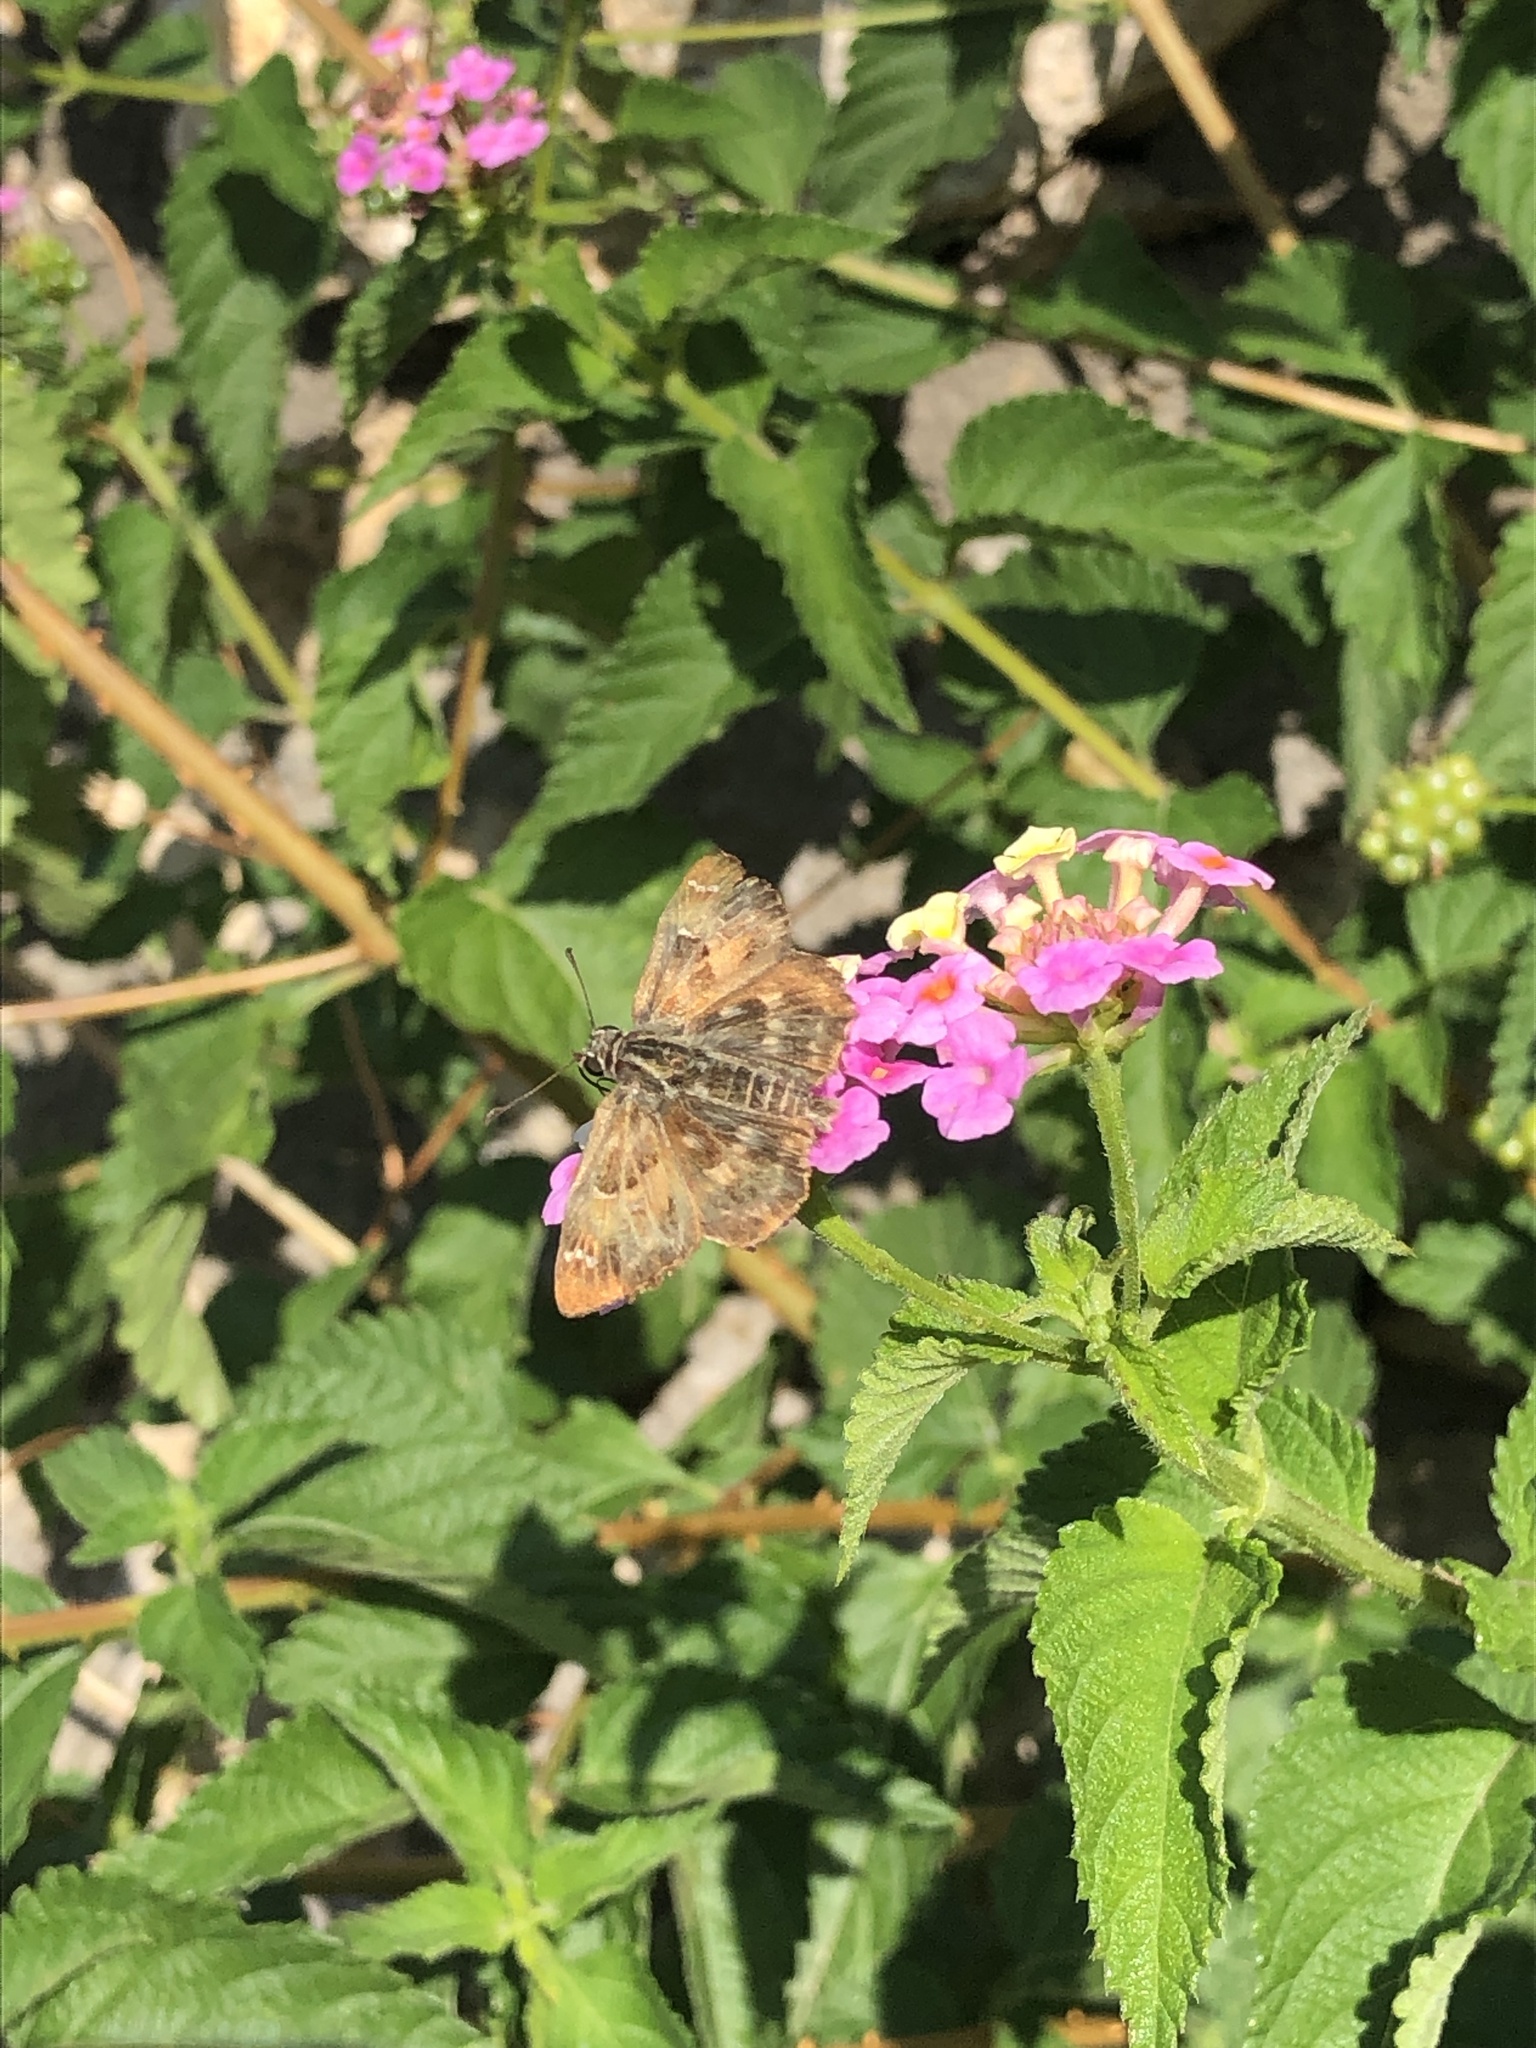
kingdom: Animalia
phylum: Arthropoda
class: Insecta
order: Lepidoptera
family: Hesperiidae
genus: Carcharodus
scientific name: Carcharodus alceae
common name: Mallow skipper
